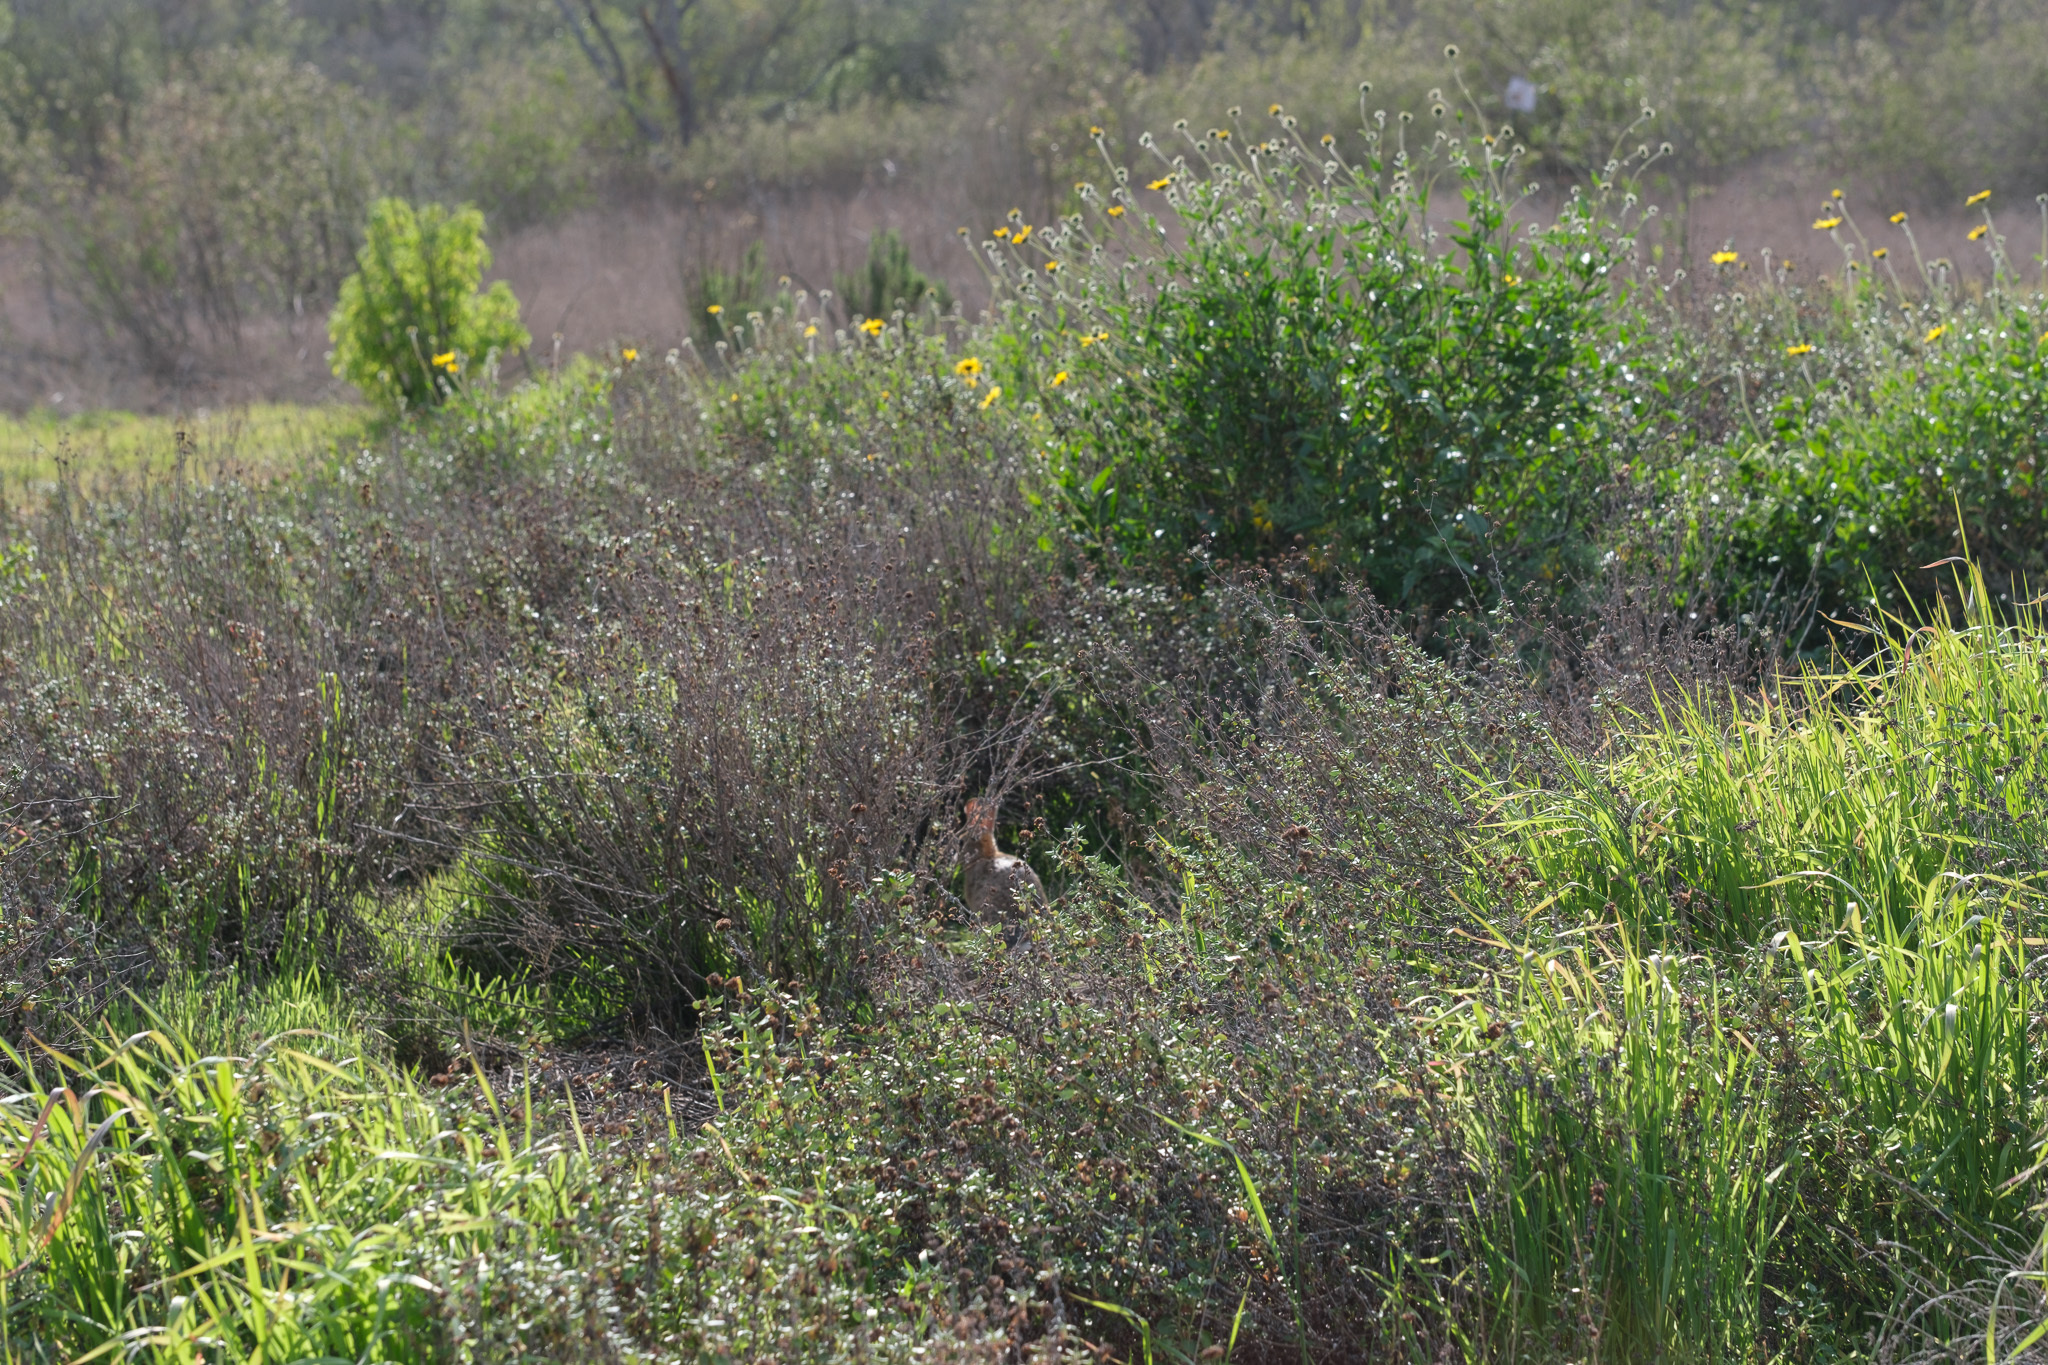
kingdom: Animalia
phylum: Chordata
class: Mammalia
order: Lagomorpha
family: Leporidae
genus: Sylvilagus
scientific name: Sylvilagus audubonii
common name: Desert cottontail
